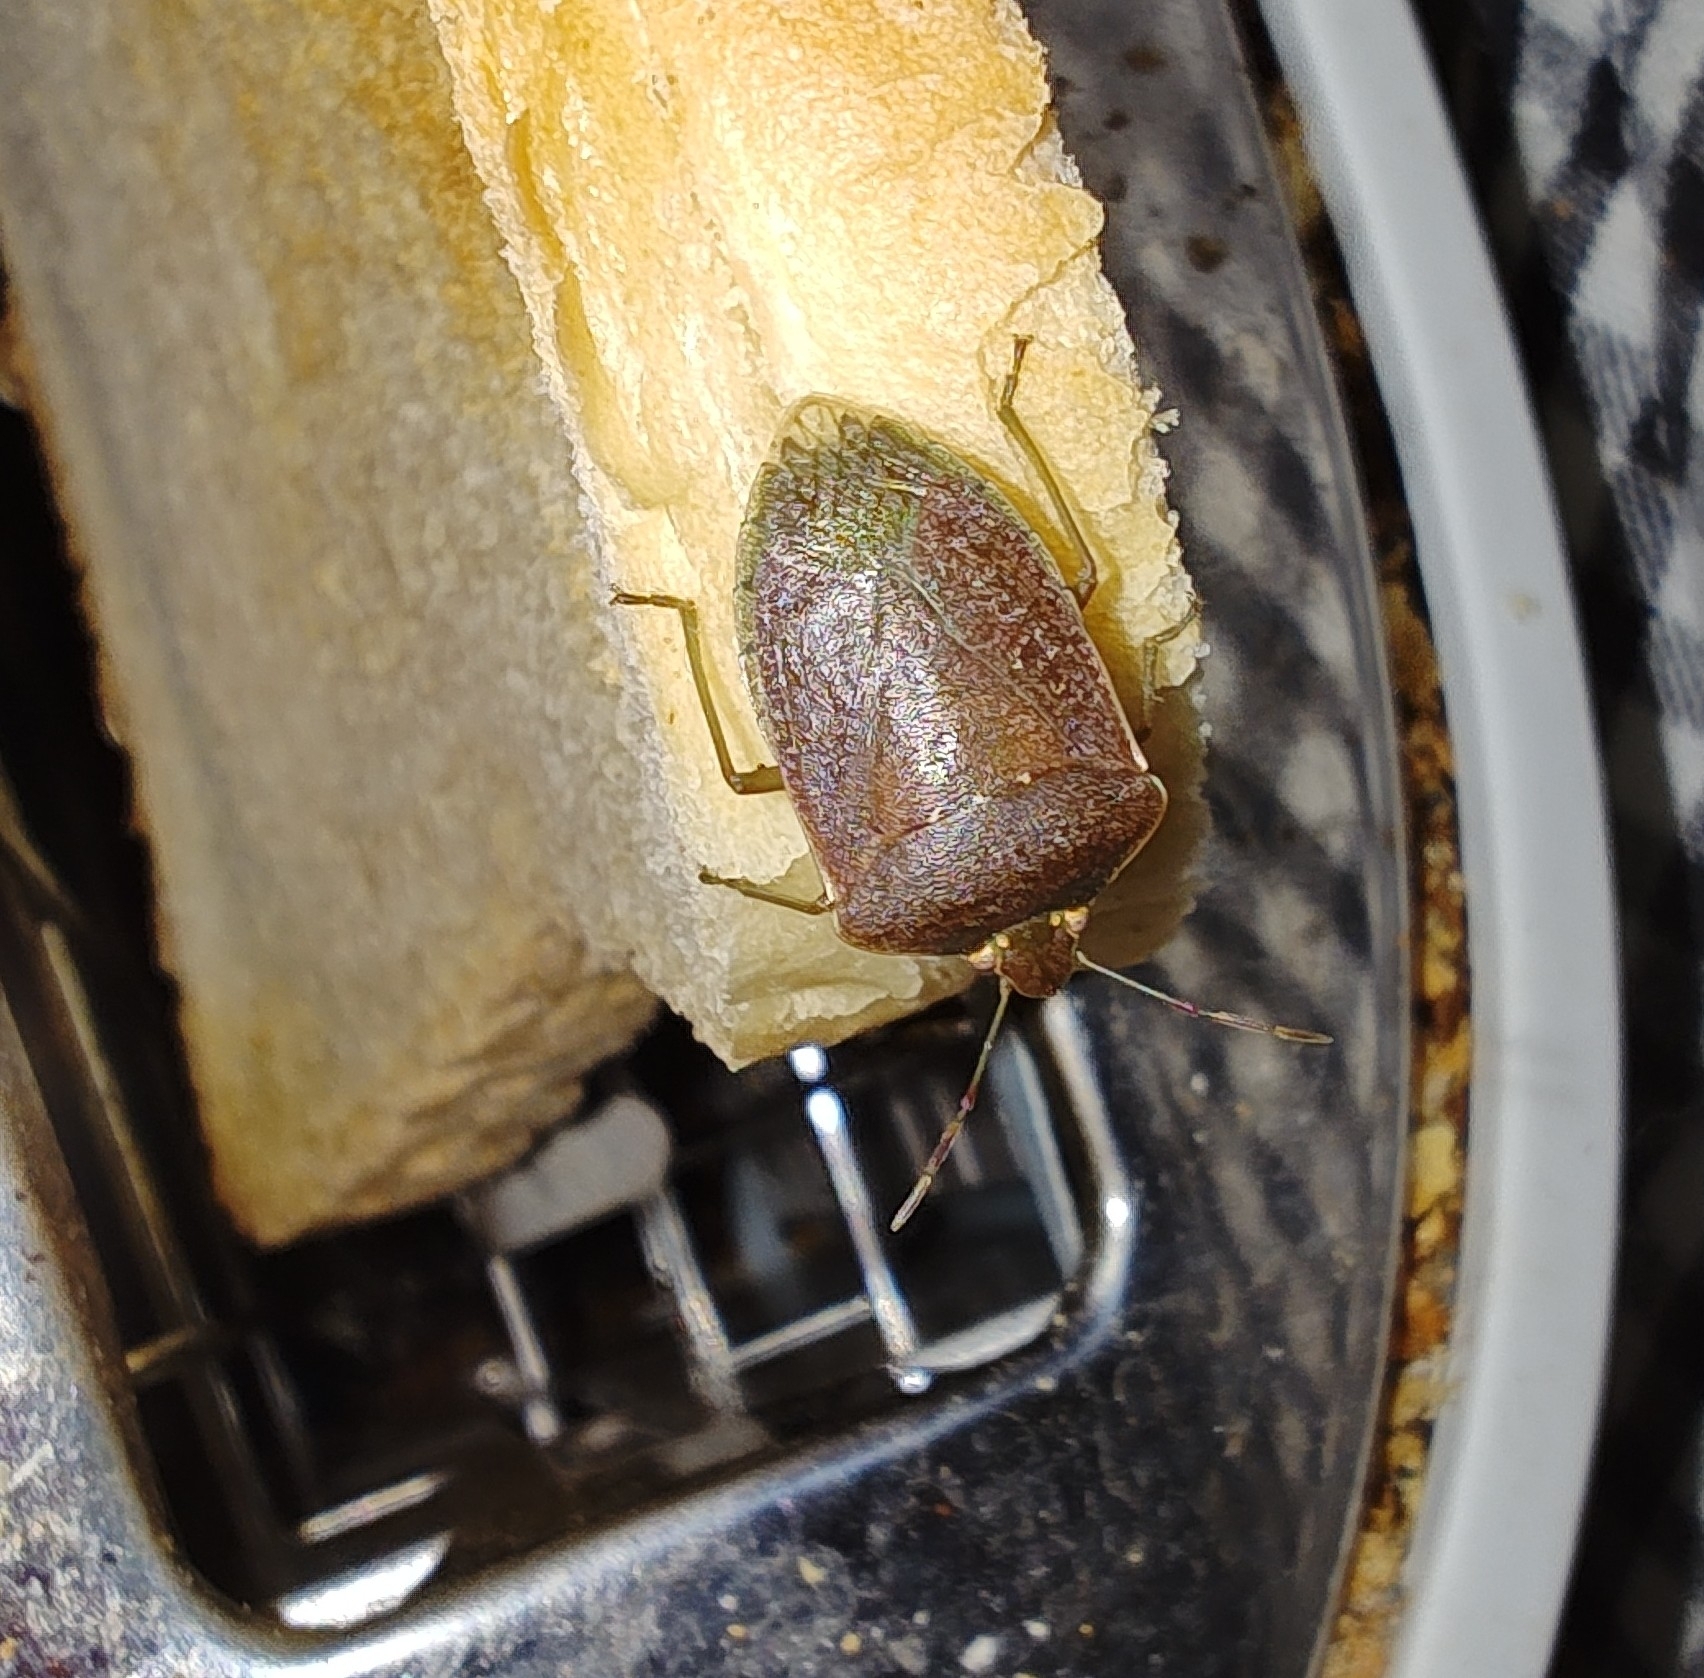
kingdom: Animalia
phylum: Arthropoda
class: Insecta
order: Hemiptera
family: Pentatomidae
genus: Nezara
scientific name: Nezara viridula
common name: Southern green stink bug
